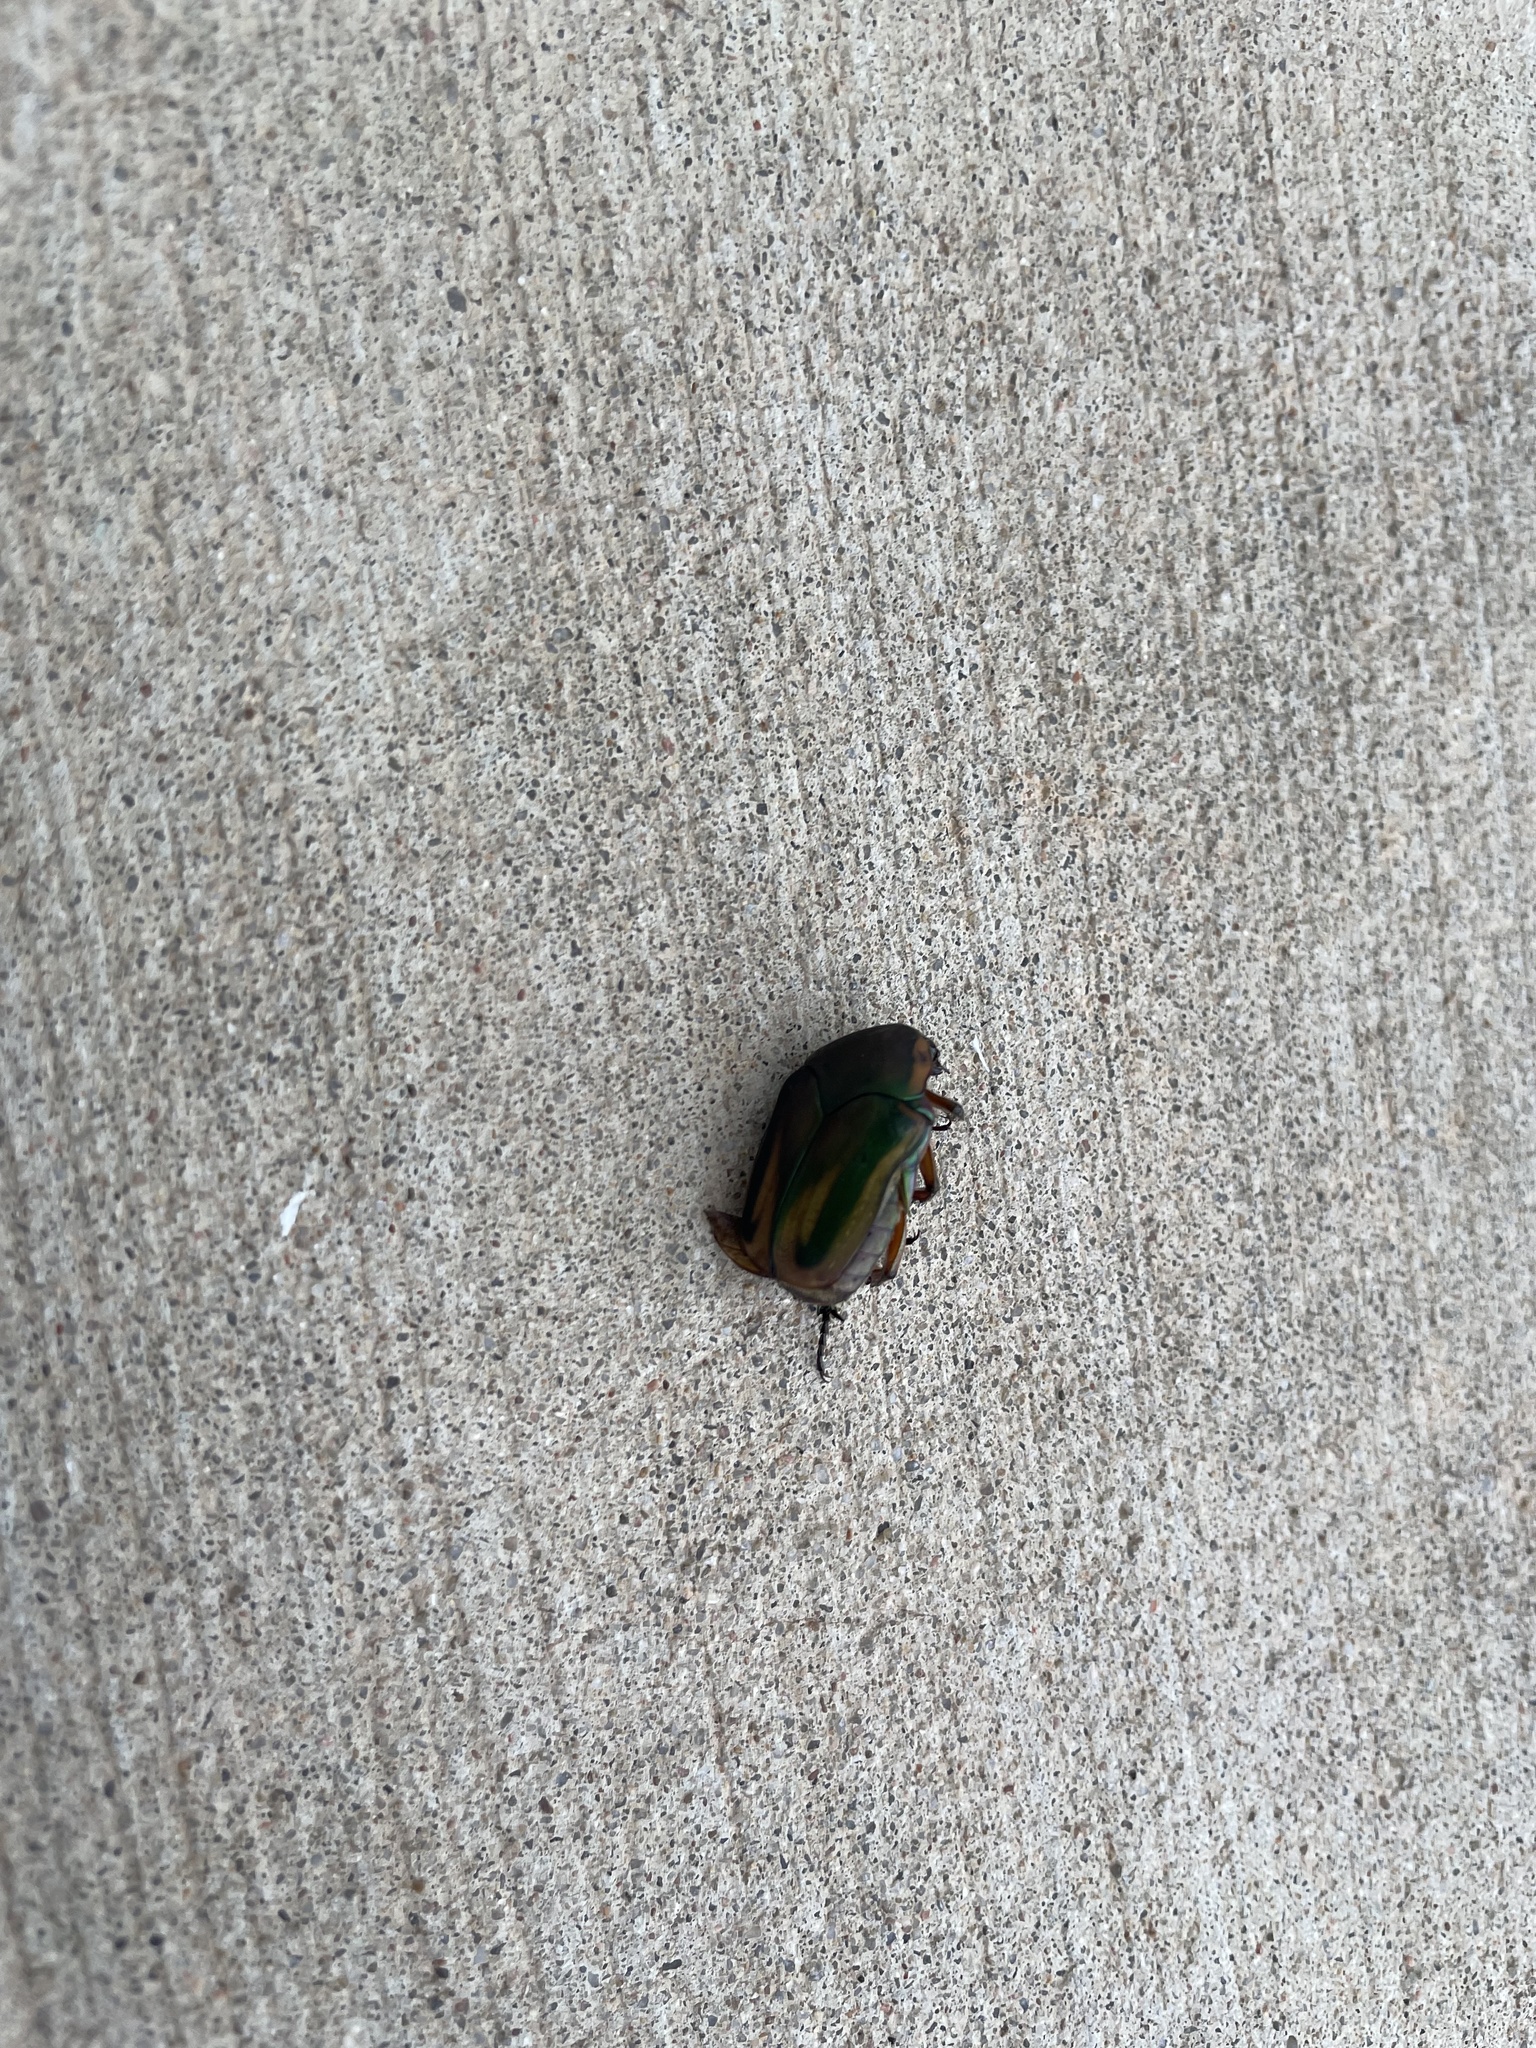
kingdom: Animalia
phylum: Arthropoda
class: Insecta
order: Coleoptera
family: Scarabaeidae
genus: Cotinis
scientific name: Cotinis nitida
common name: Common green june beetle
